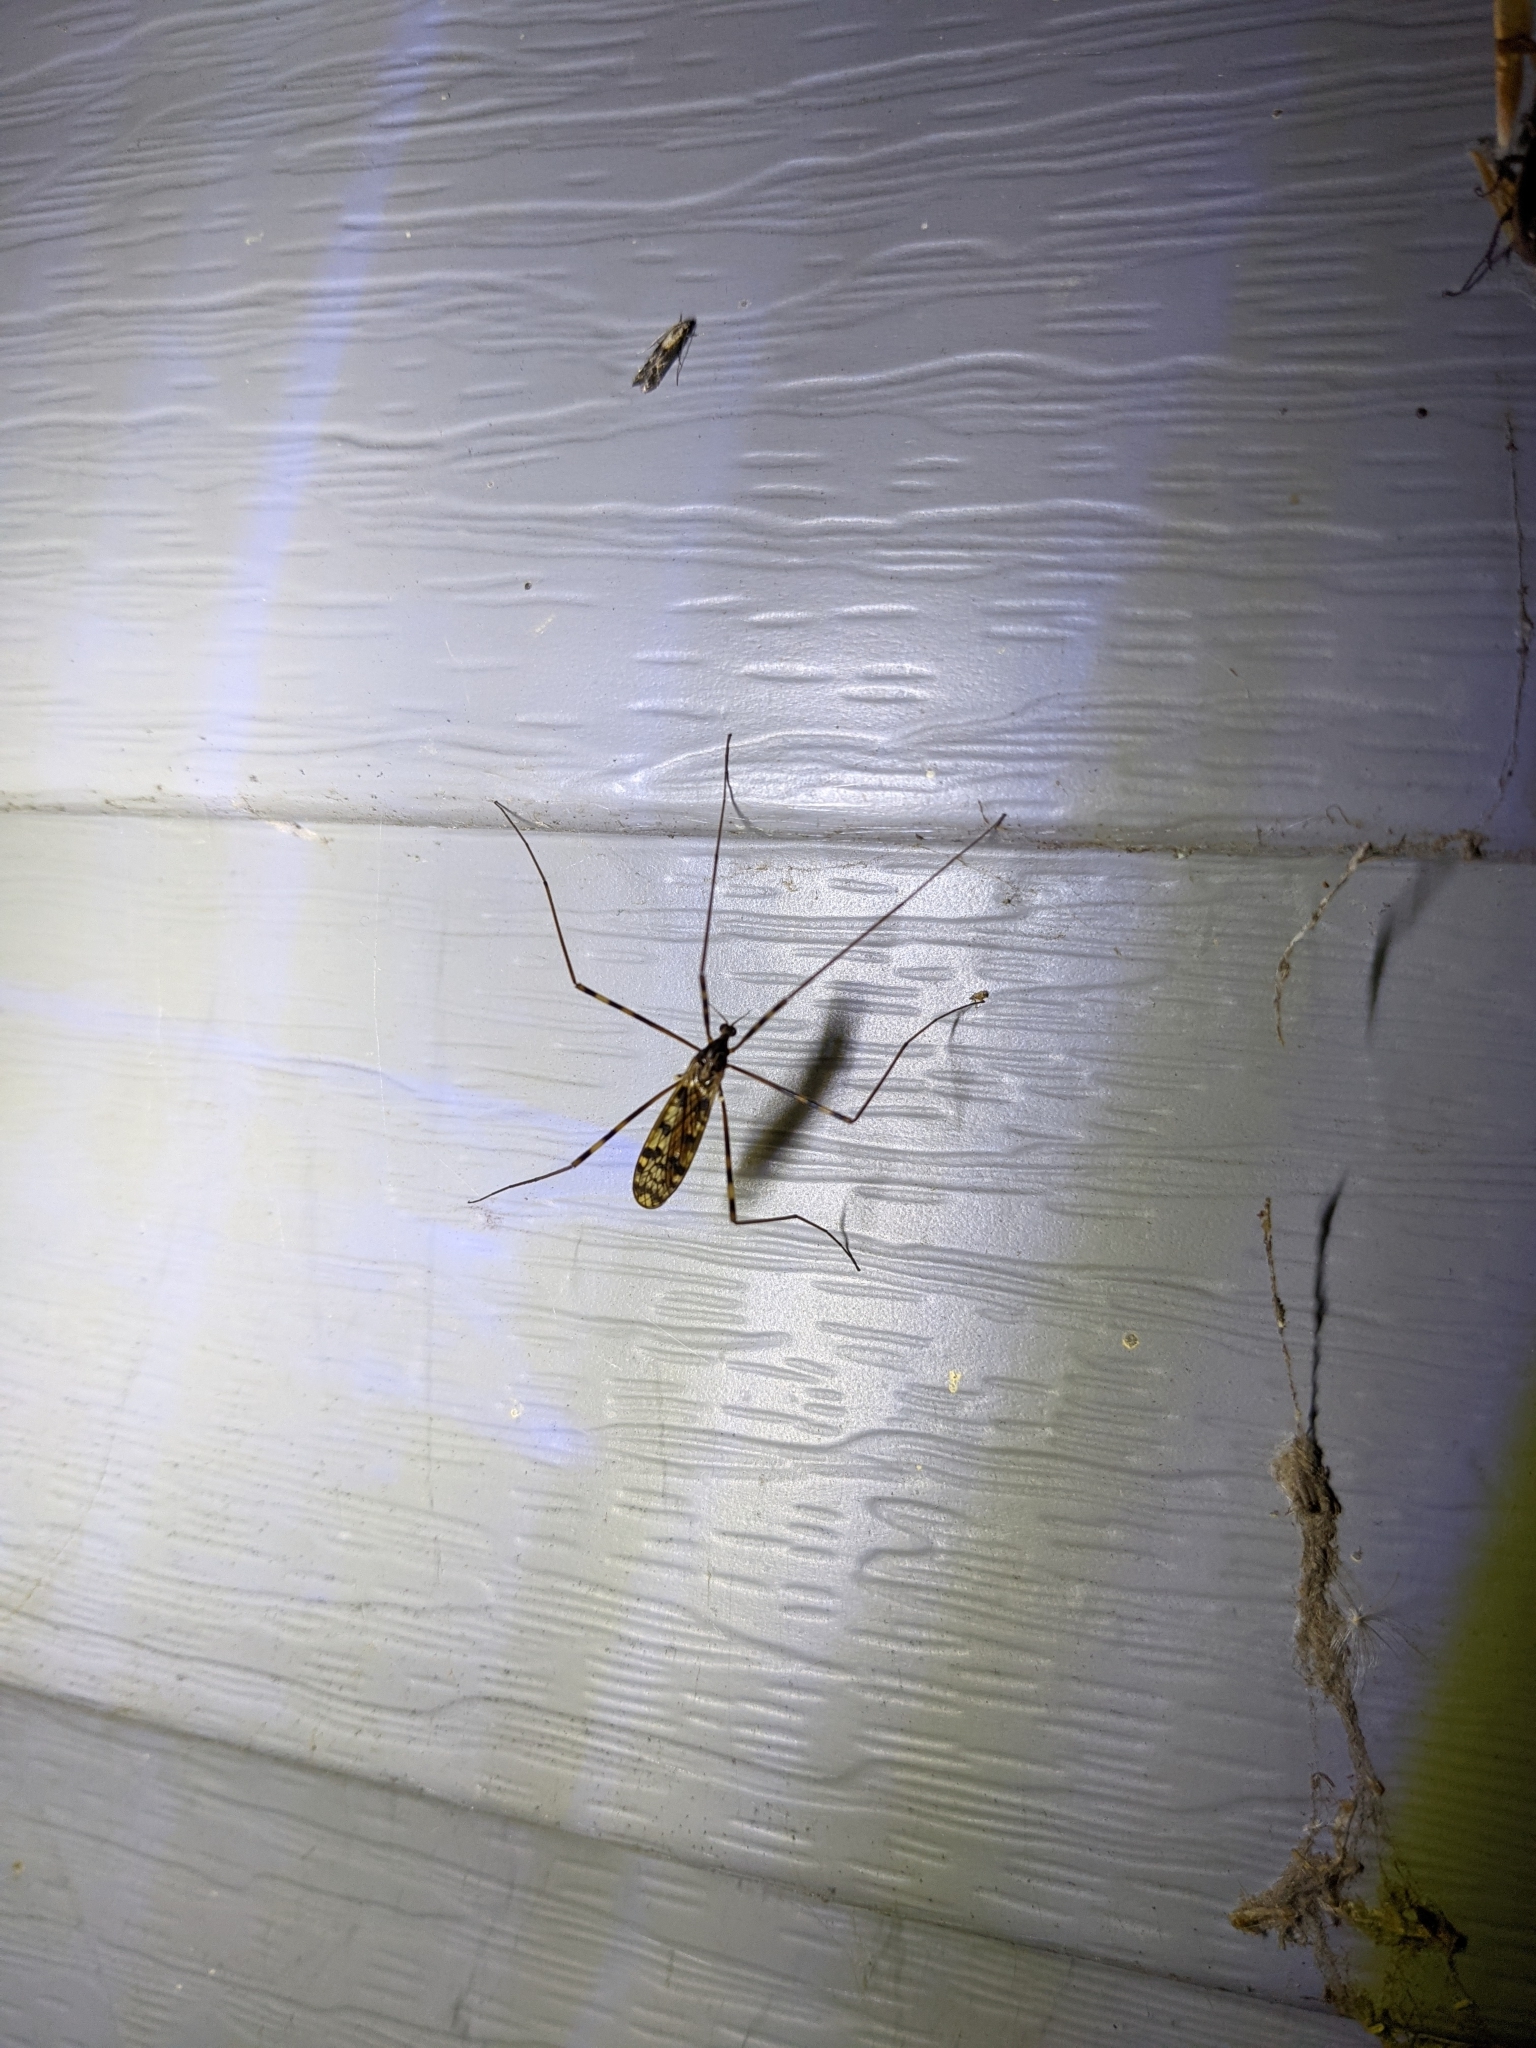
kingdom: Animalia
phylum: Arthropoda
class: Insecta
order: Diptera
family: Limoniidae
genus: Metalimnobia
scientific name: Metalimnobia immatura
